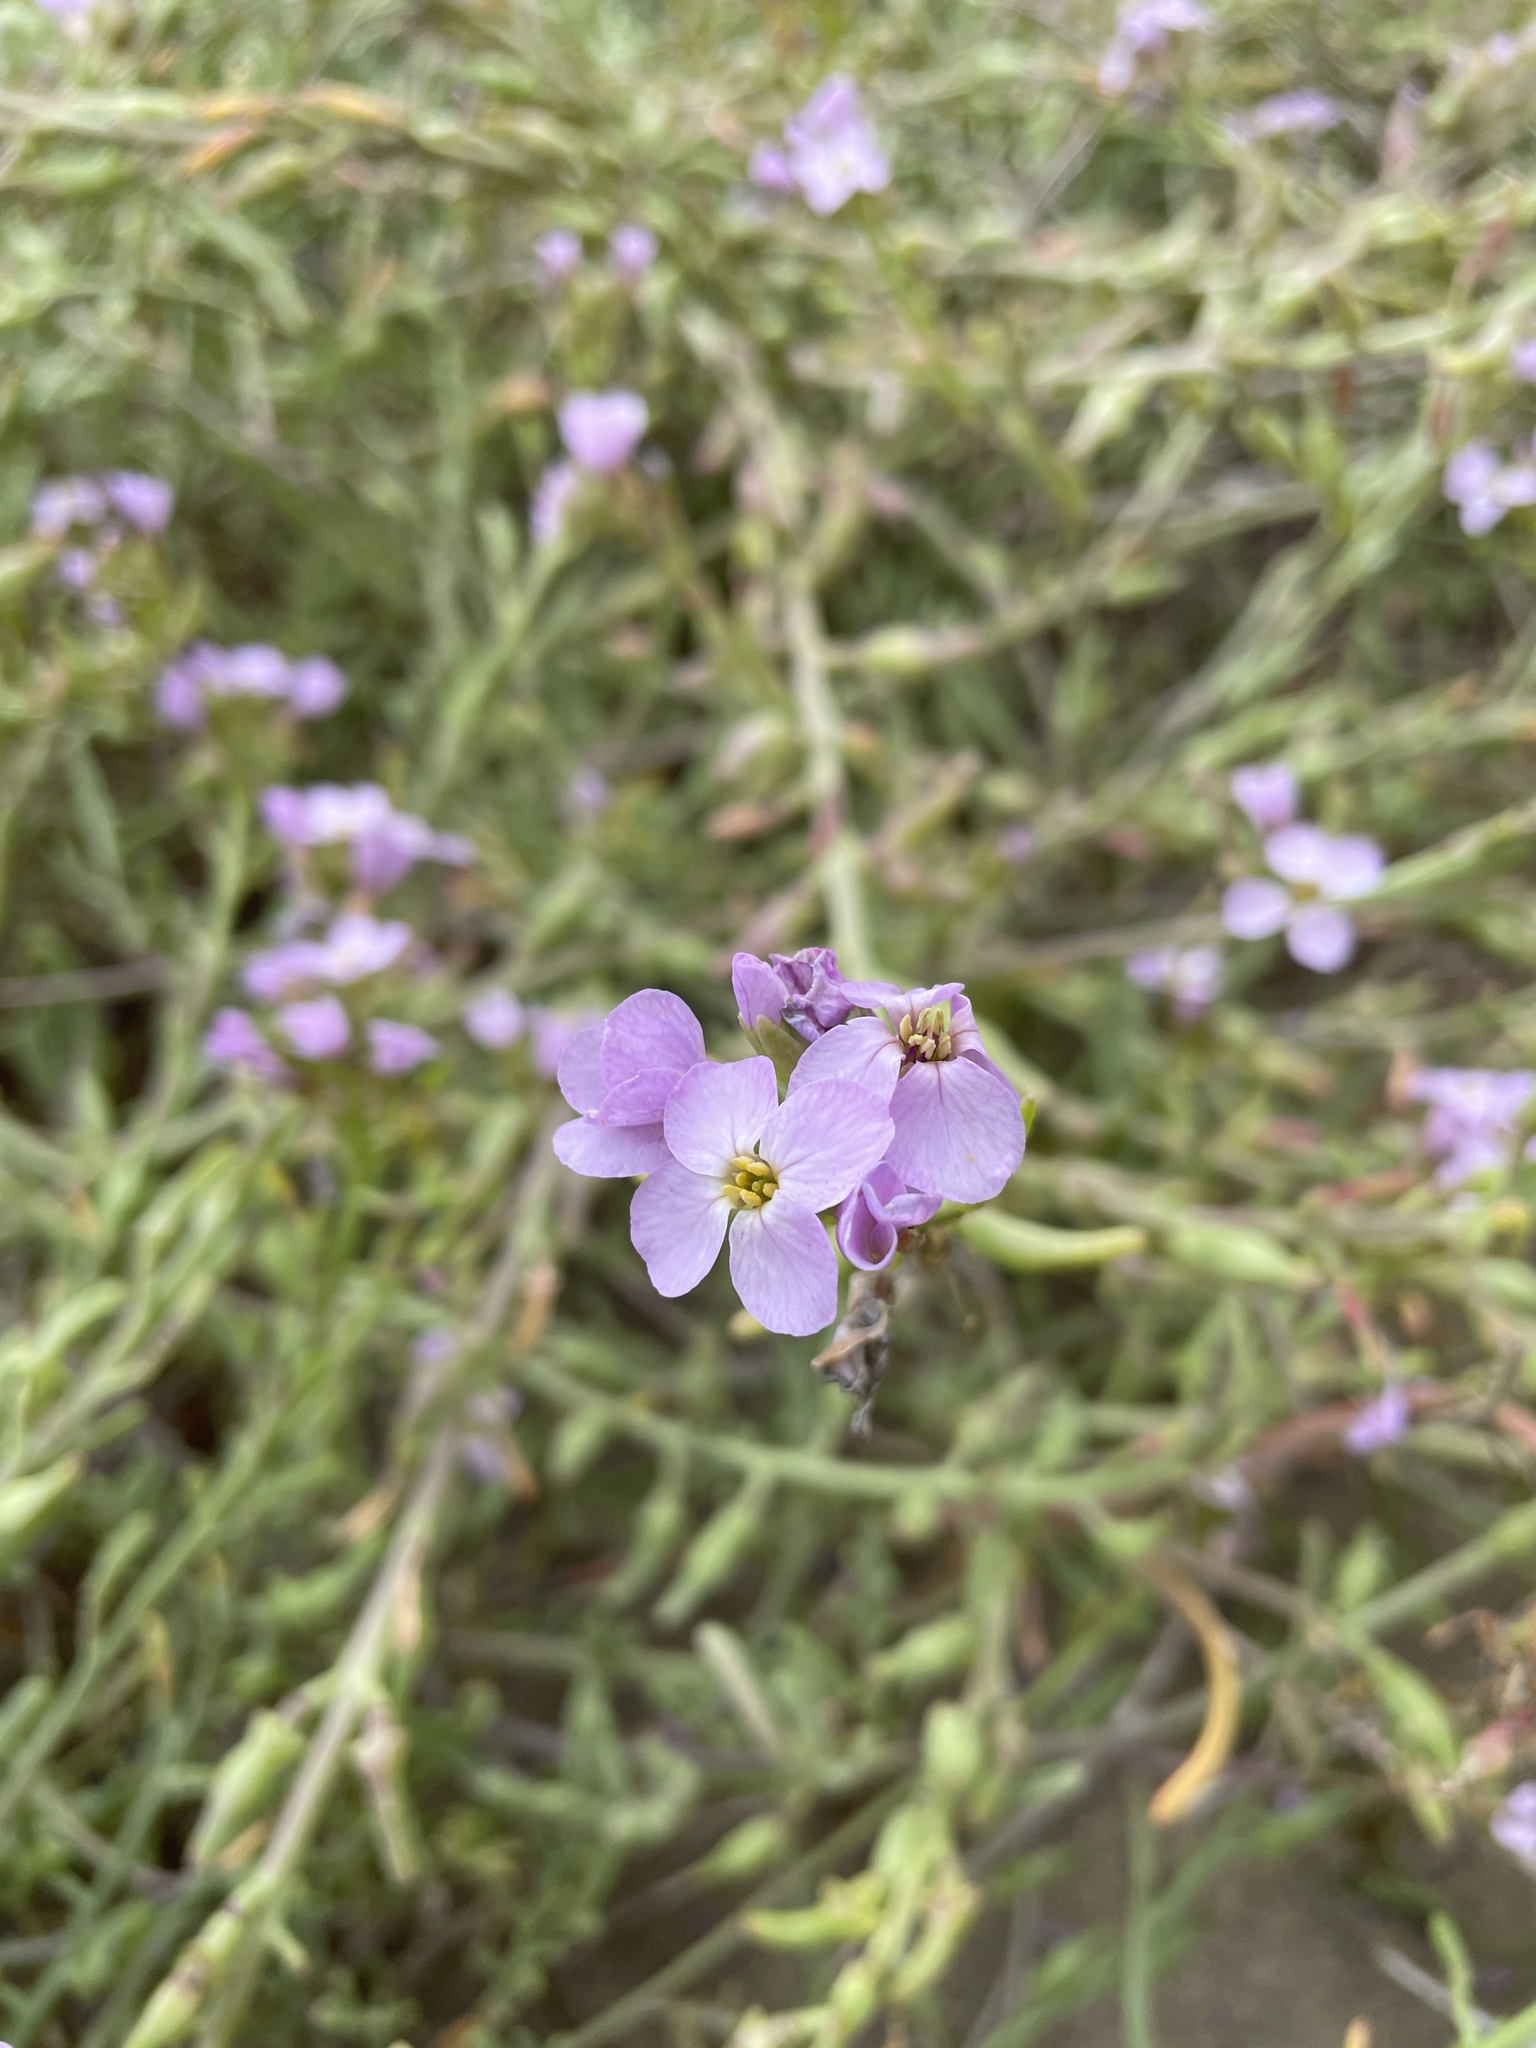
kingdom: Plantae
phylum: Tracheophyta
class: Magnoliopsida
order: Brassicales
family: Brassicaceae
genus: Cakile
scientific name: Cakile maritima
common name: Sea rocket
